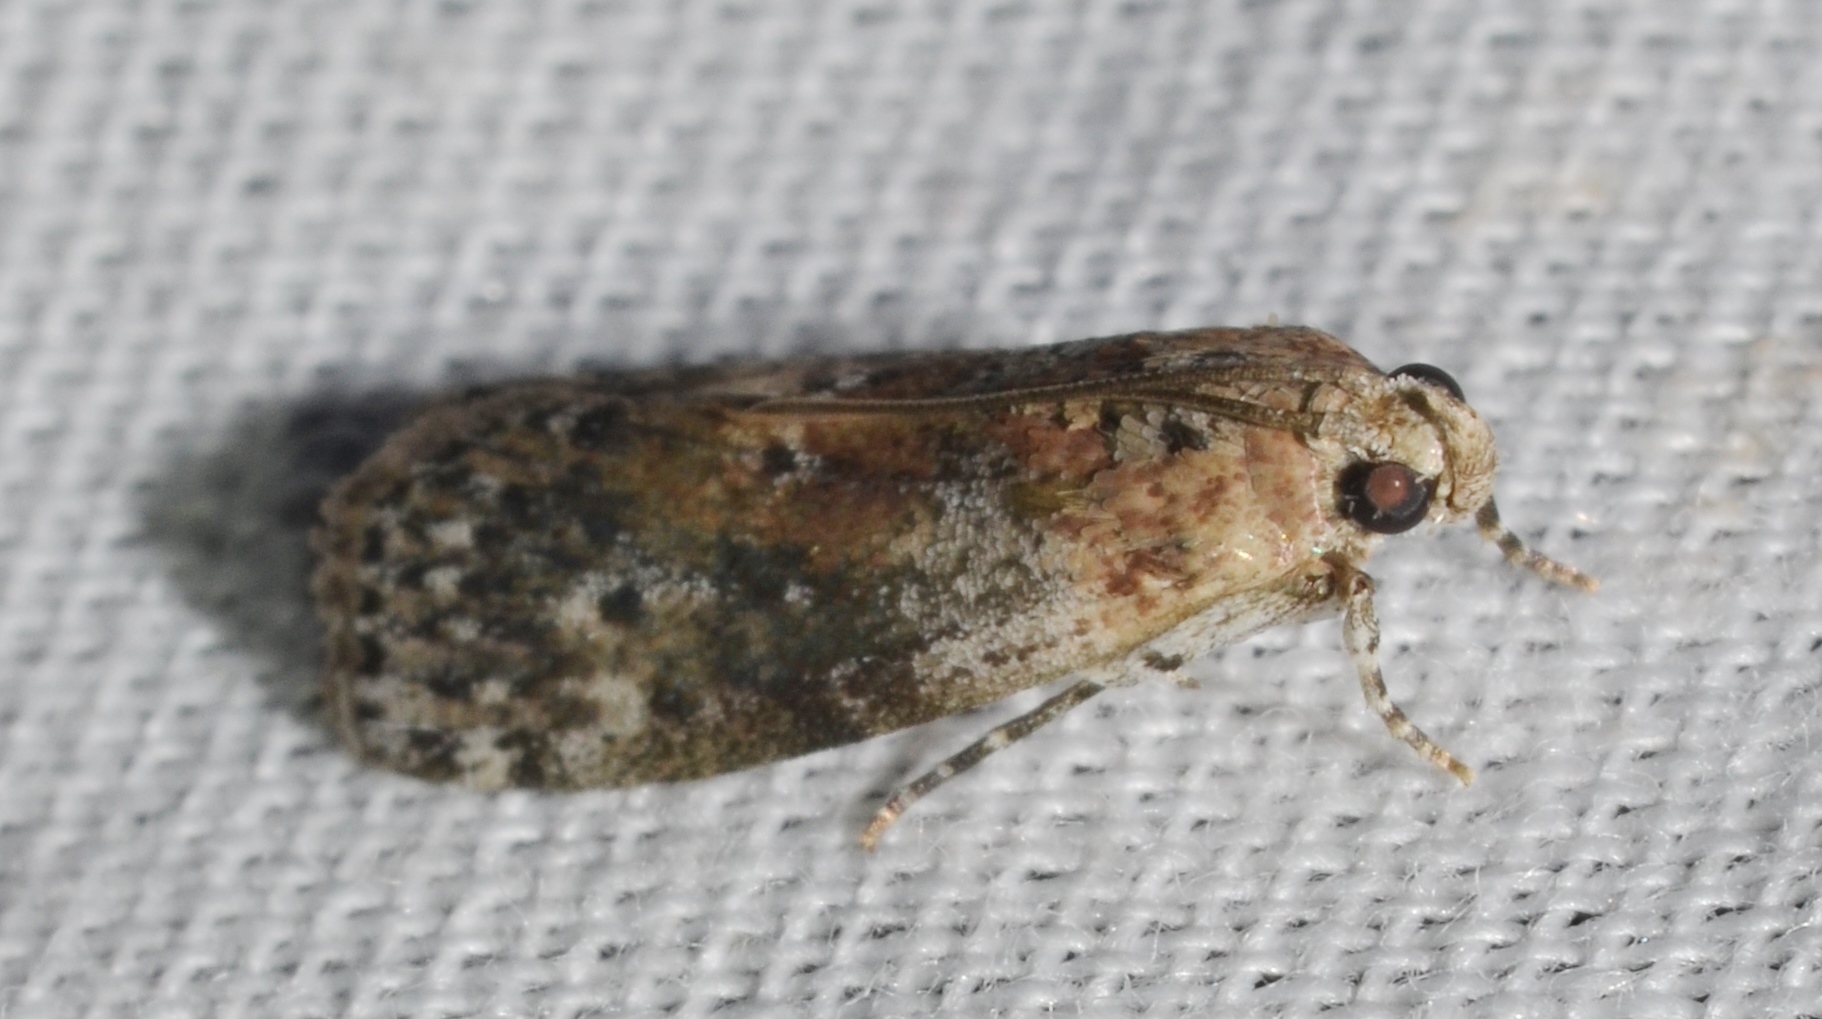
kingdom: Animalia
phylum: Arthropoda
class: Insecta
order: Lepidoptera
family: Pyralidae
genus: Sciota
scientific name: Sciota celtidella
